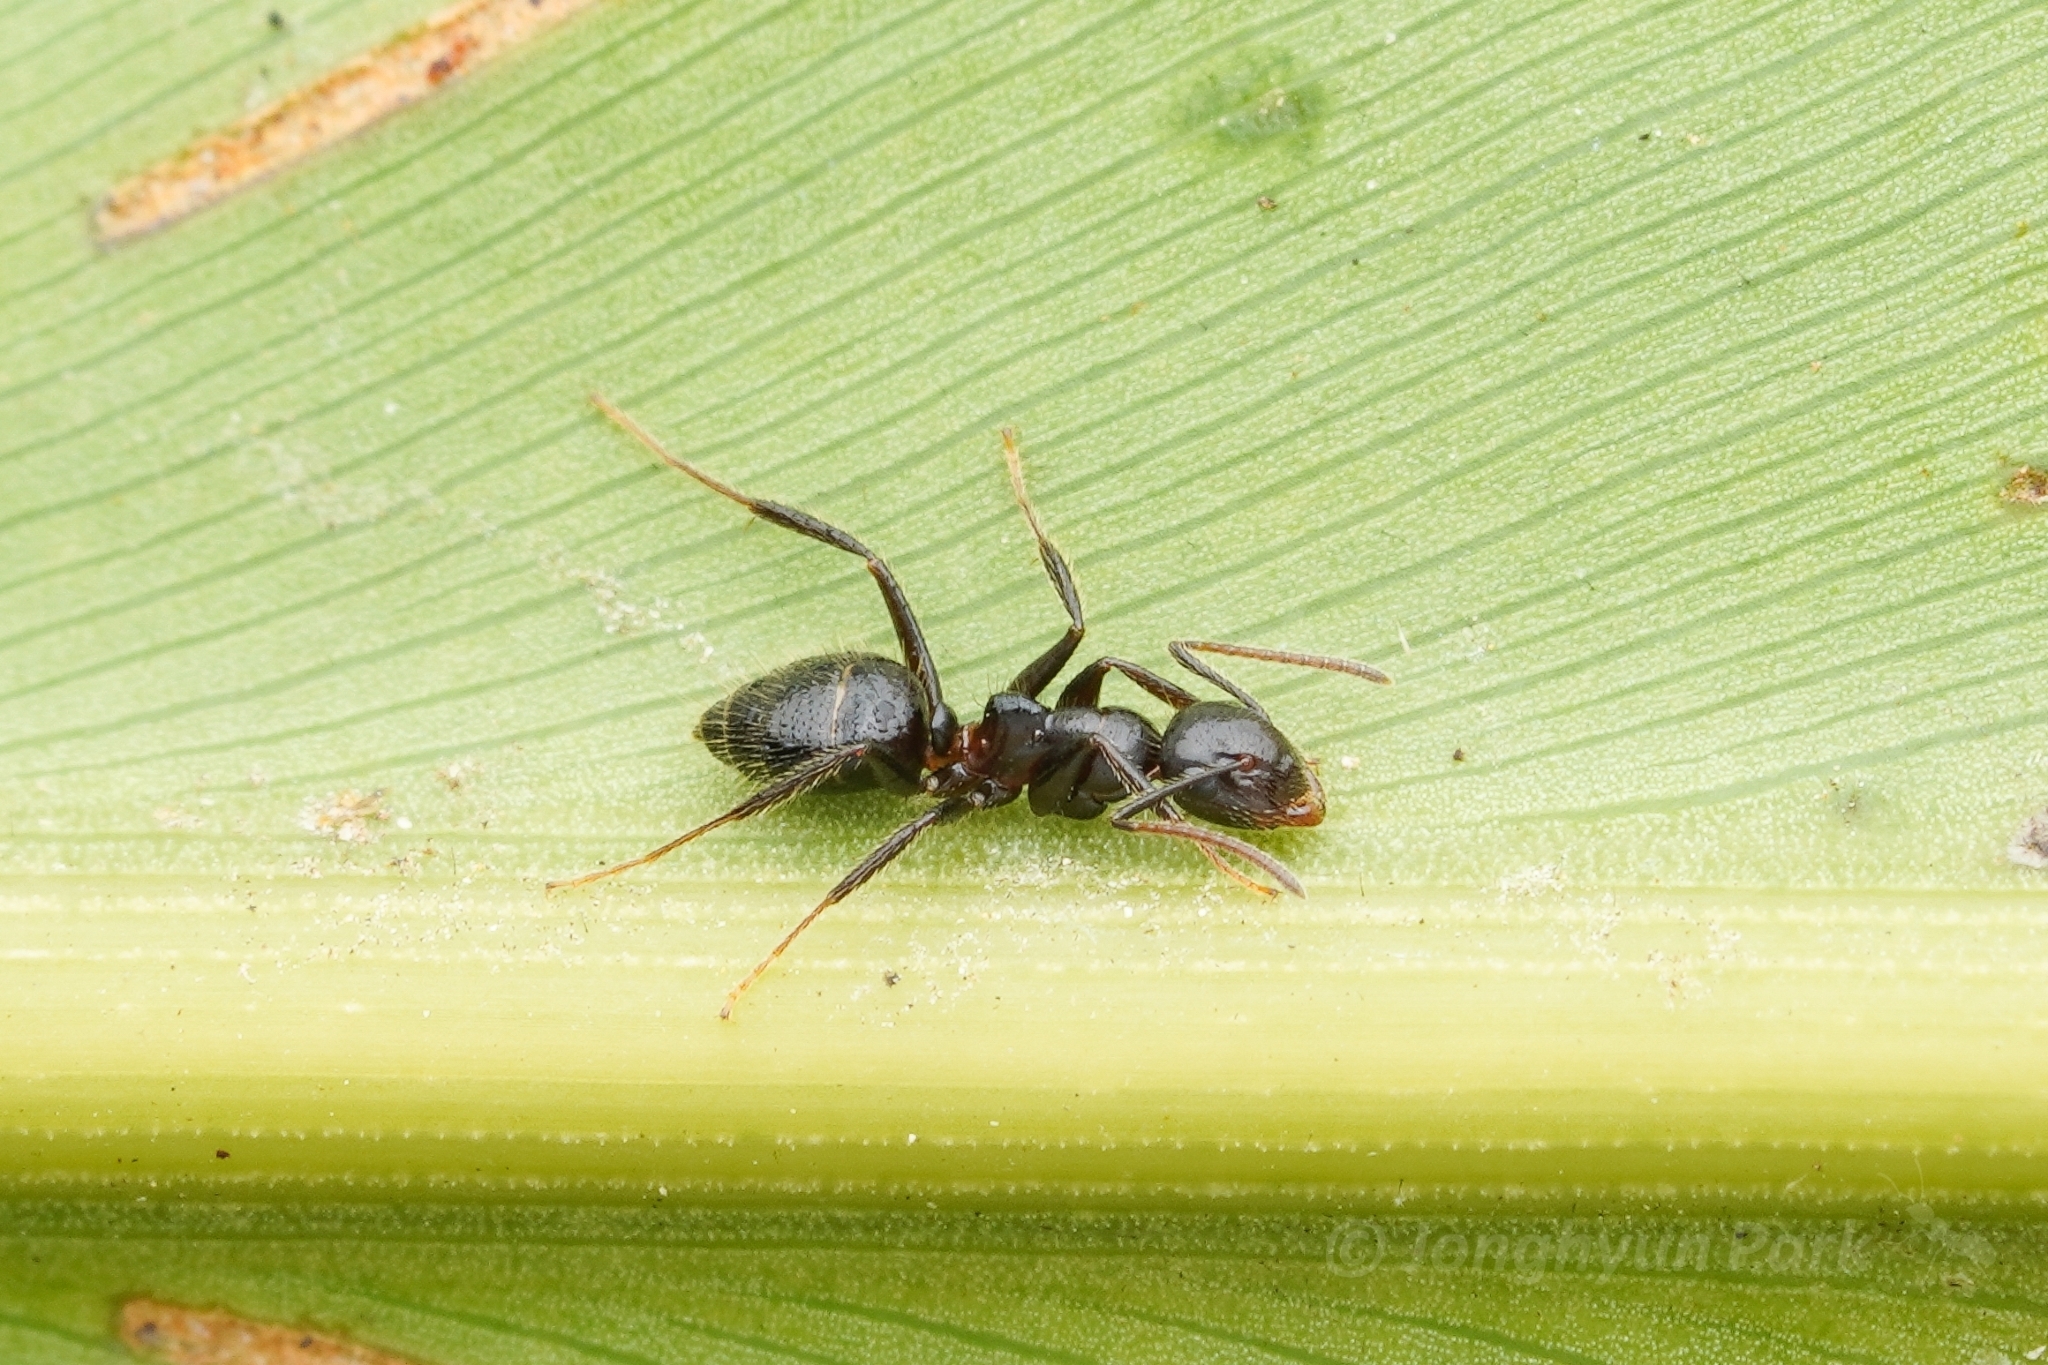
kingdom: Animalia
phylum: Arthropoda
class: Insecta
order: Hymenoptera
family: Formicidae
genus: Camponotus
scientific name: Camponotus vitreus
